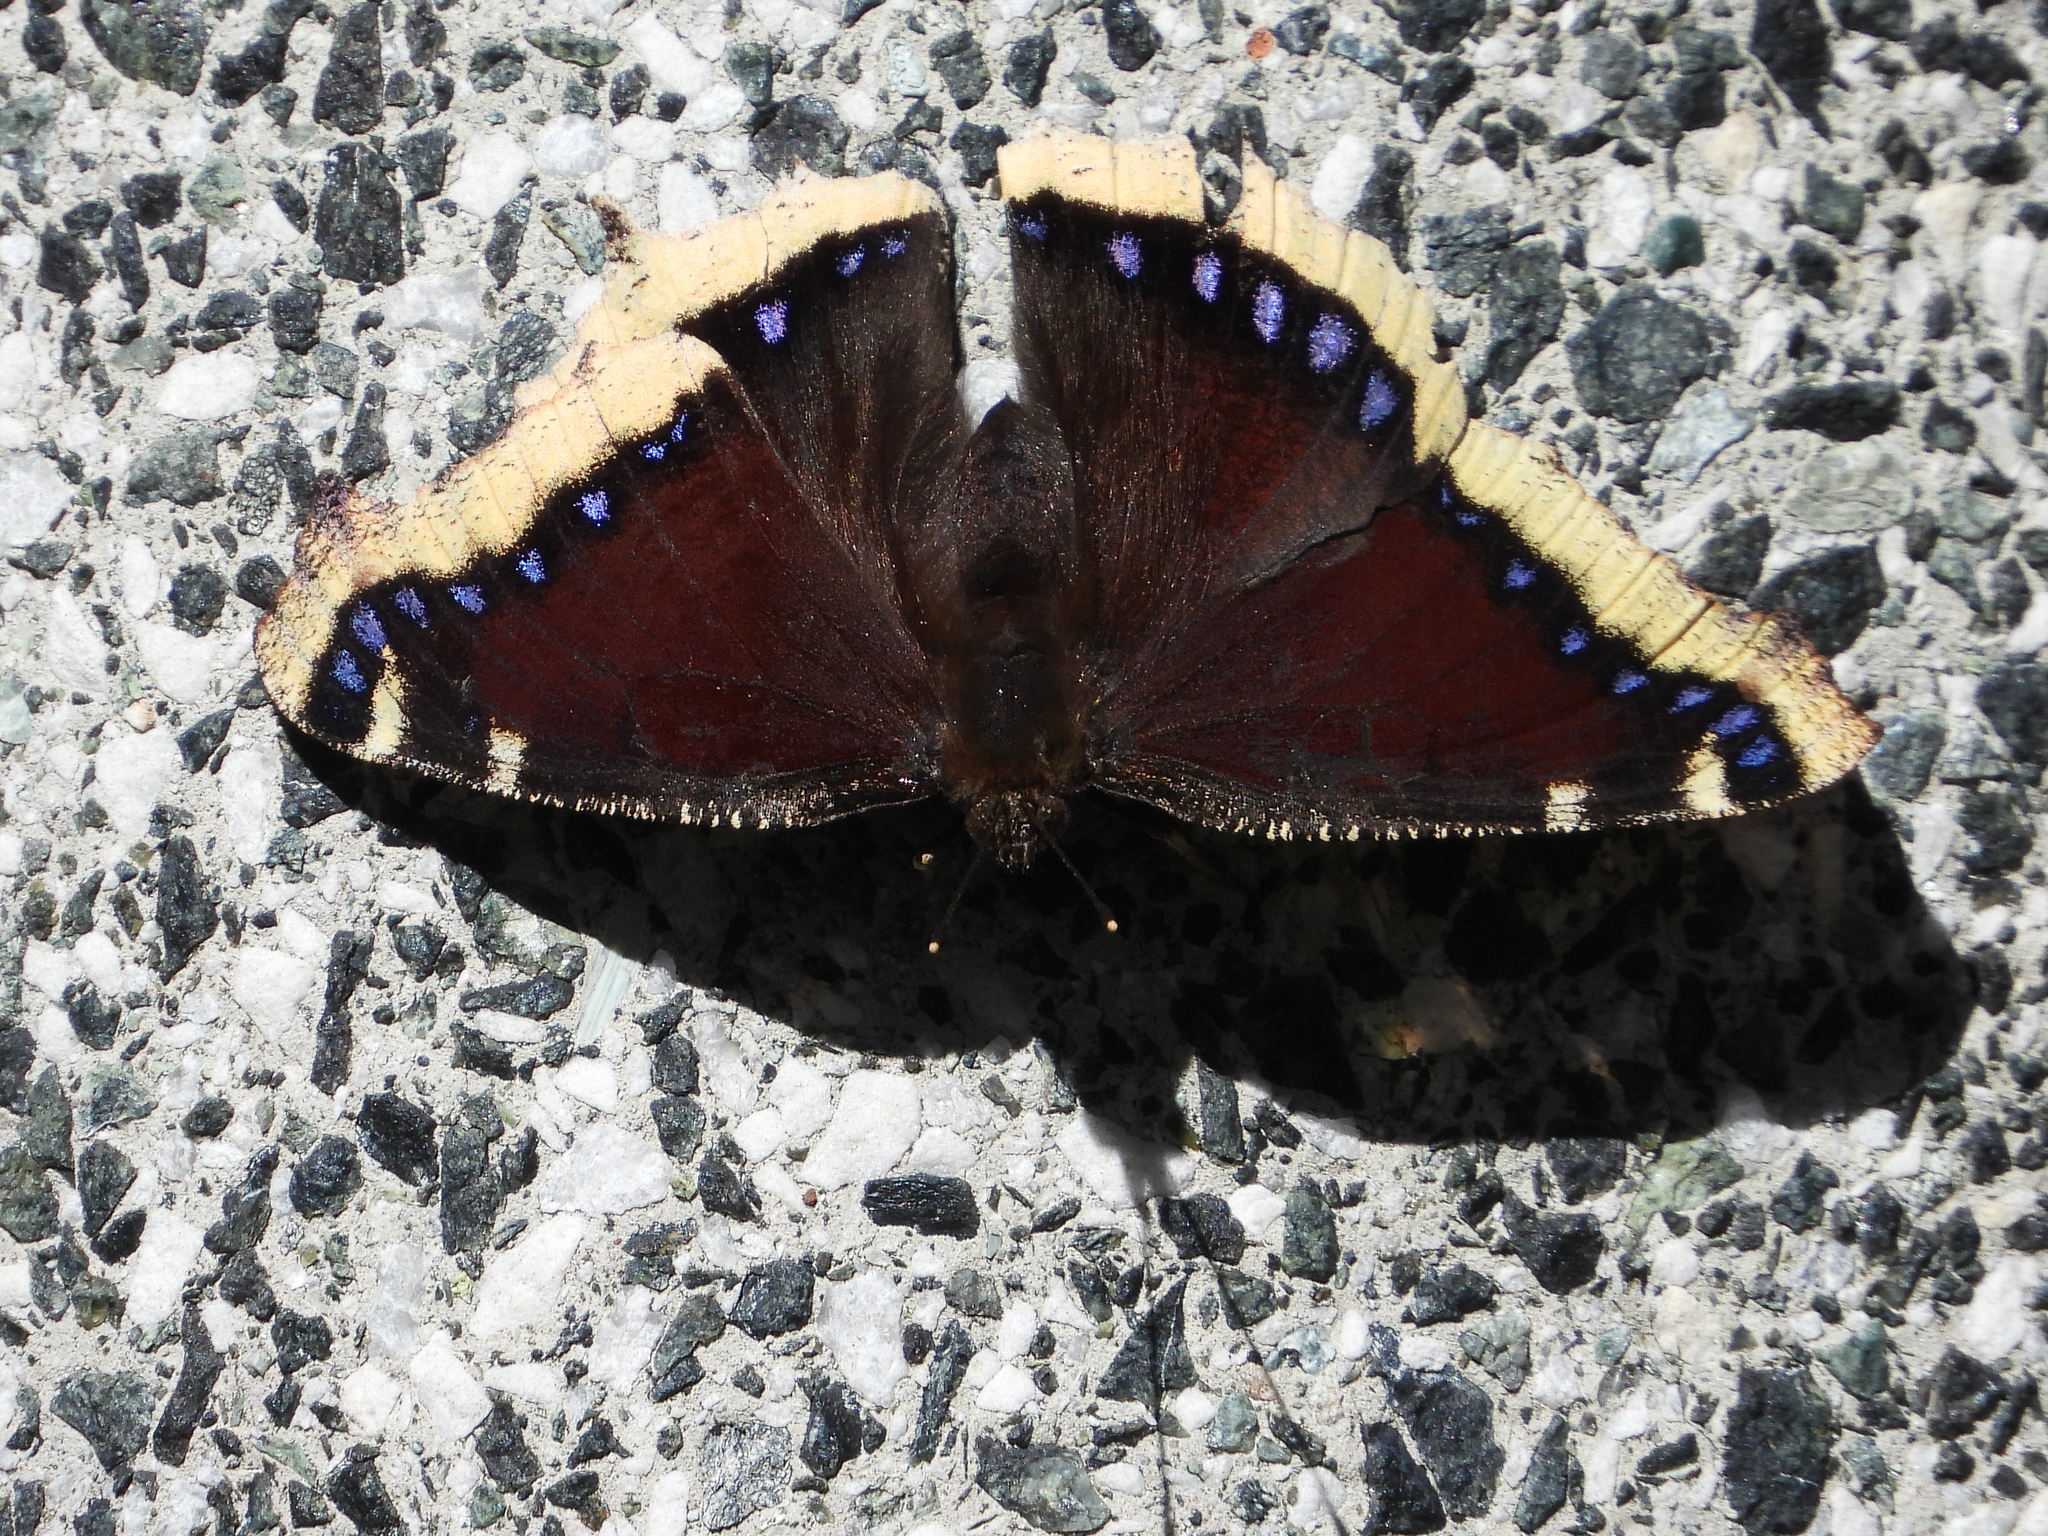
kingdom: Animalia
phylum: Arthropoda
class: Insecta
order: Lepidoptera
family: Nymphalidae
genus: Nymphalis
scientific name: Nymphalis antiopa
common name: Camberwell beauty
